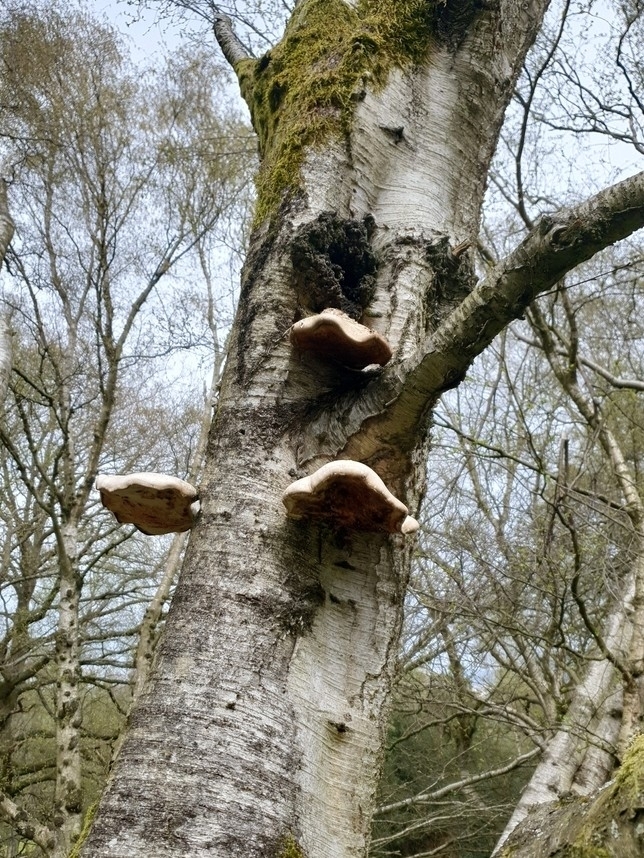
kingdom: Fungi
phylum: Basidiomycota
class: Agaricomycetes
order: Polyporales
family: Fomitopsidaceae
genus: Fomitopsis
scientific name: Fomitopsis betulina
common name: Birch polypore
